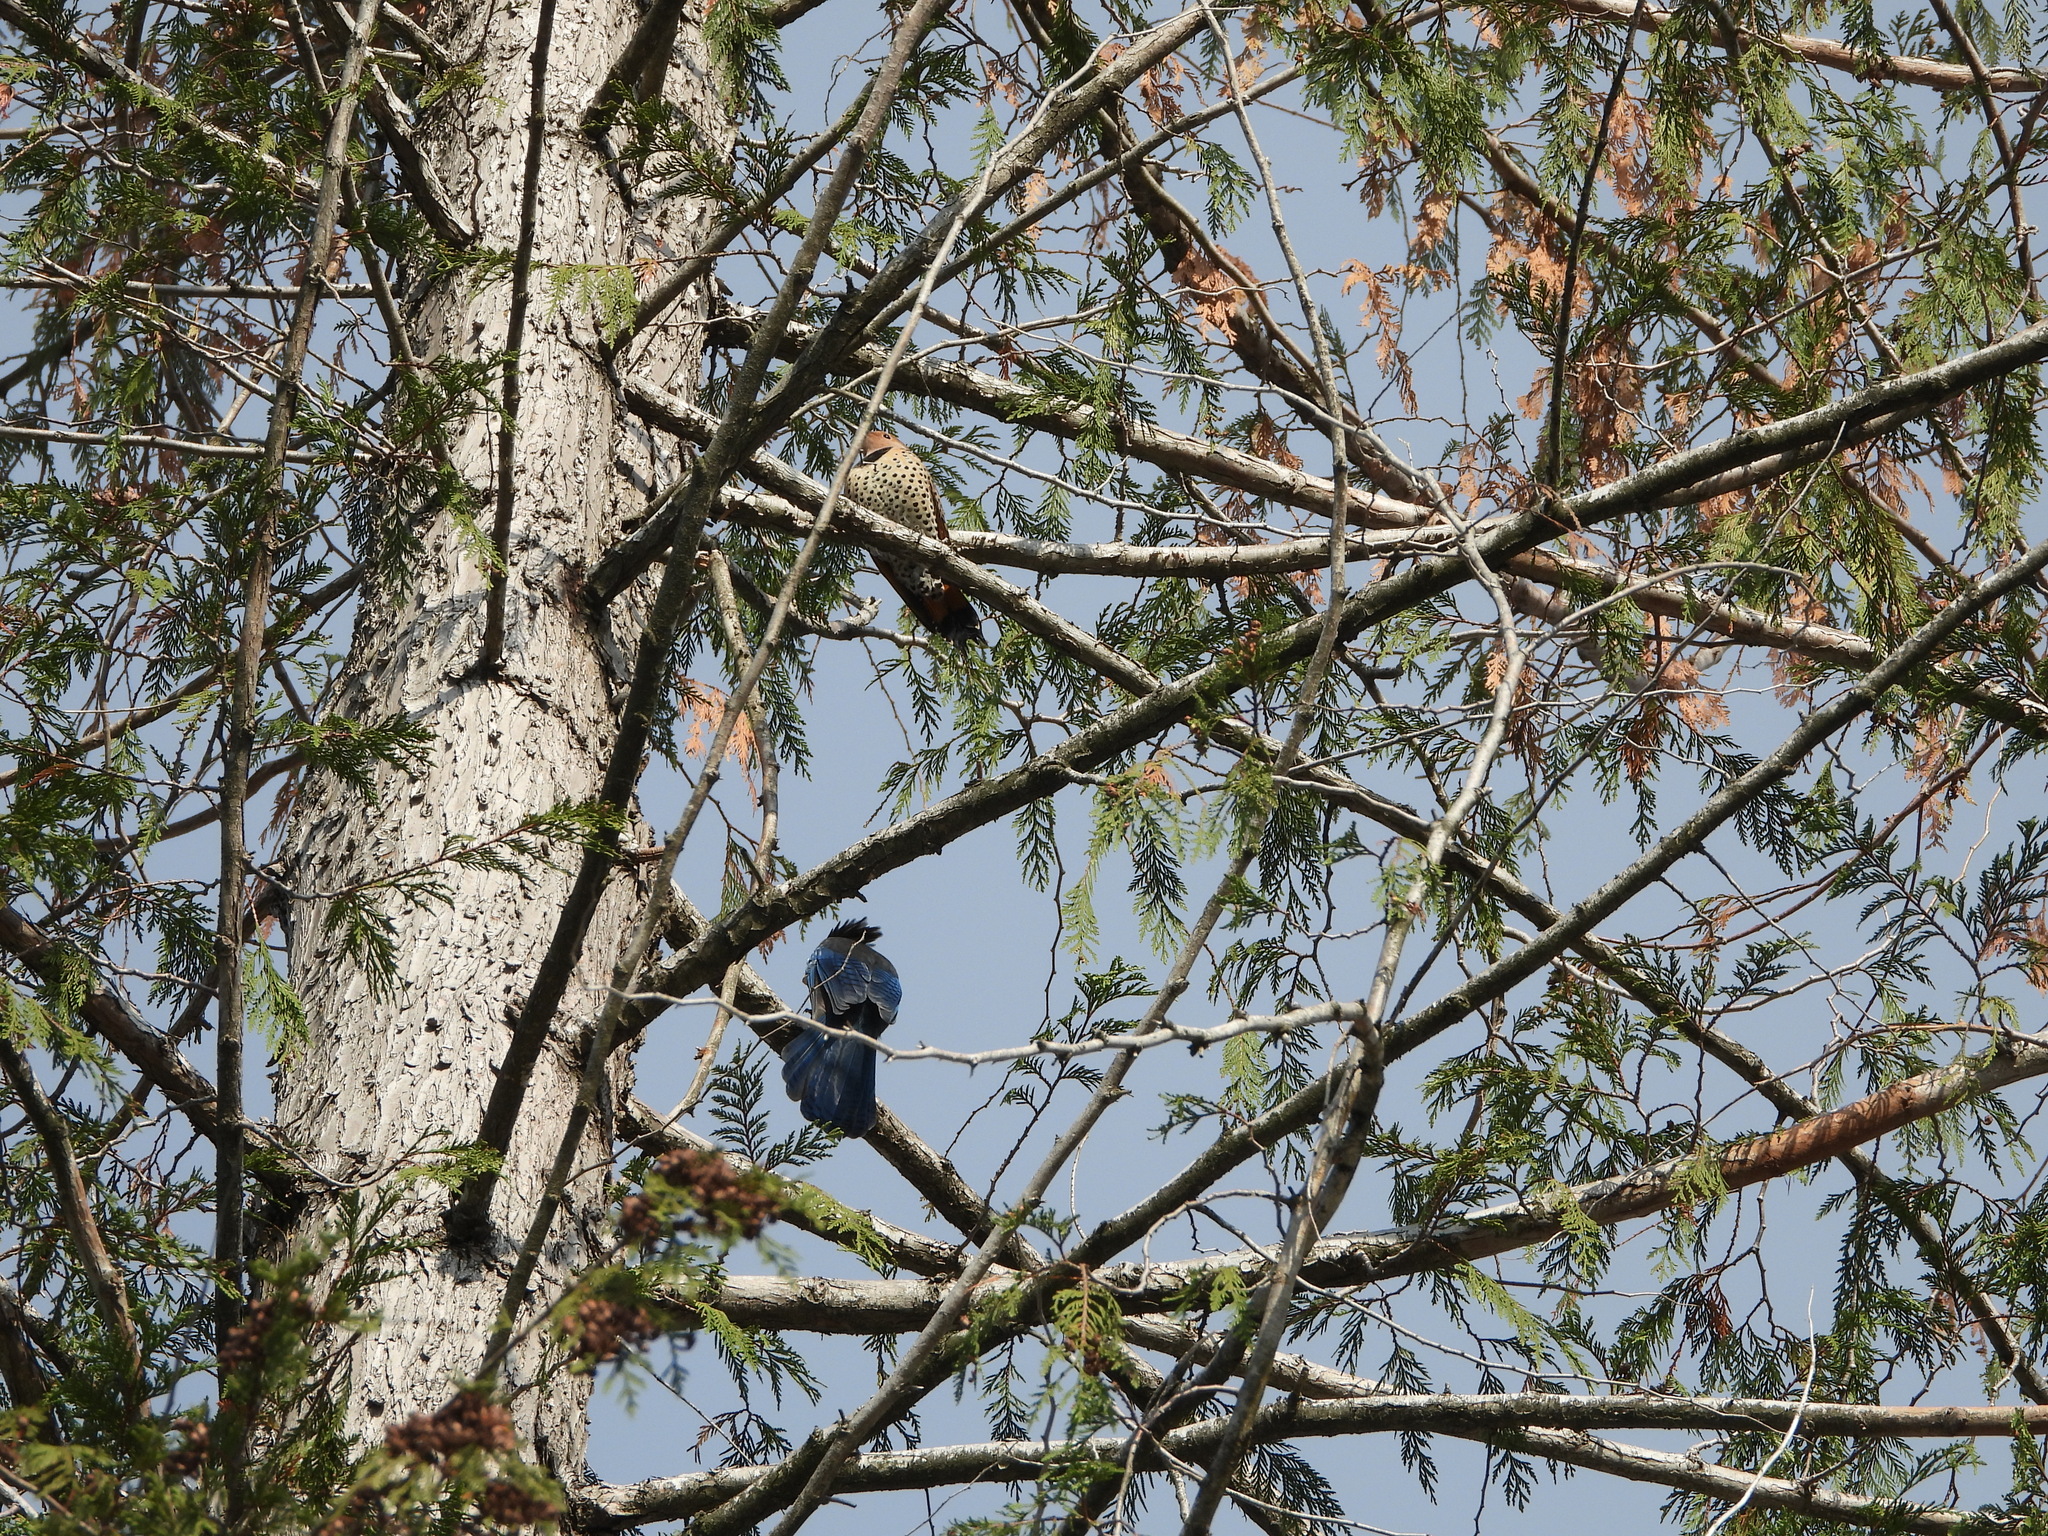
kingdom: Animalia
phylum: Chordata
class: Aves
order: Piciformes
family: Picidae
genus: Colaptes
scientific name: Colaptes auratus
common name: Northern flicker
